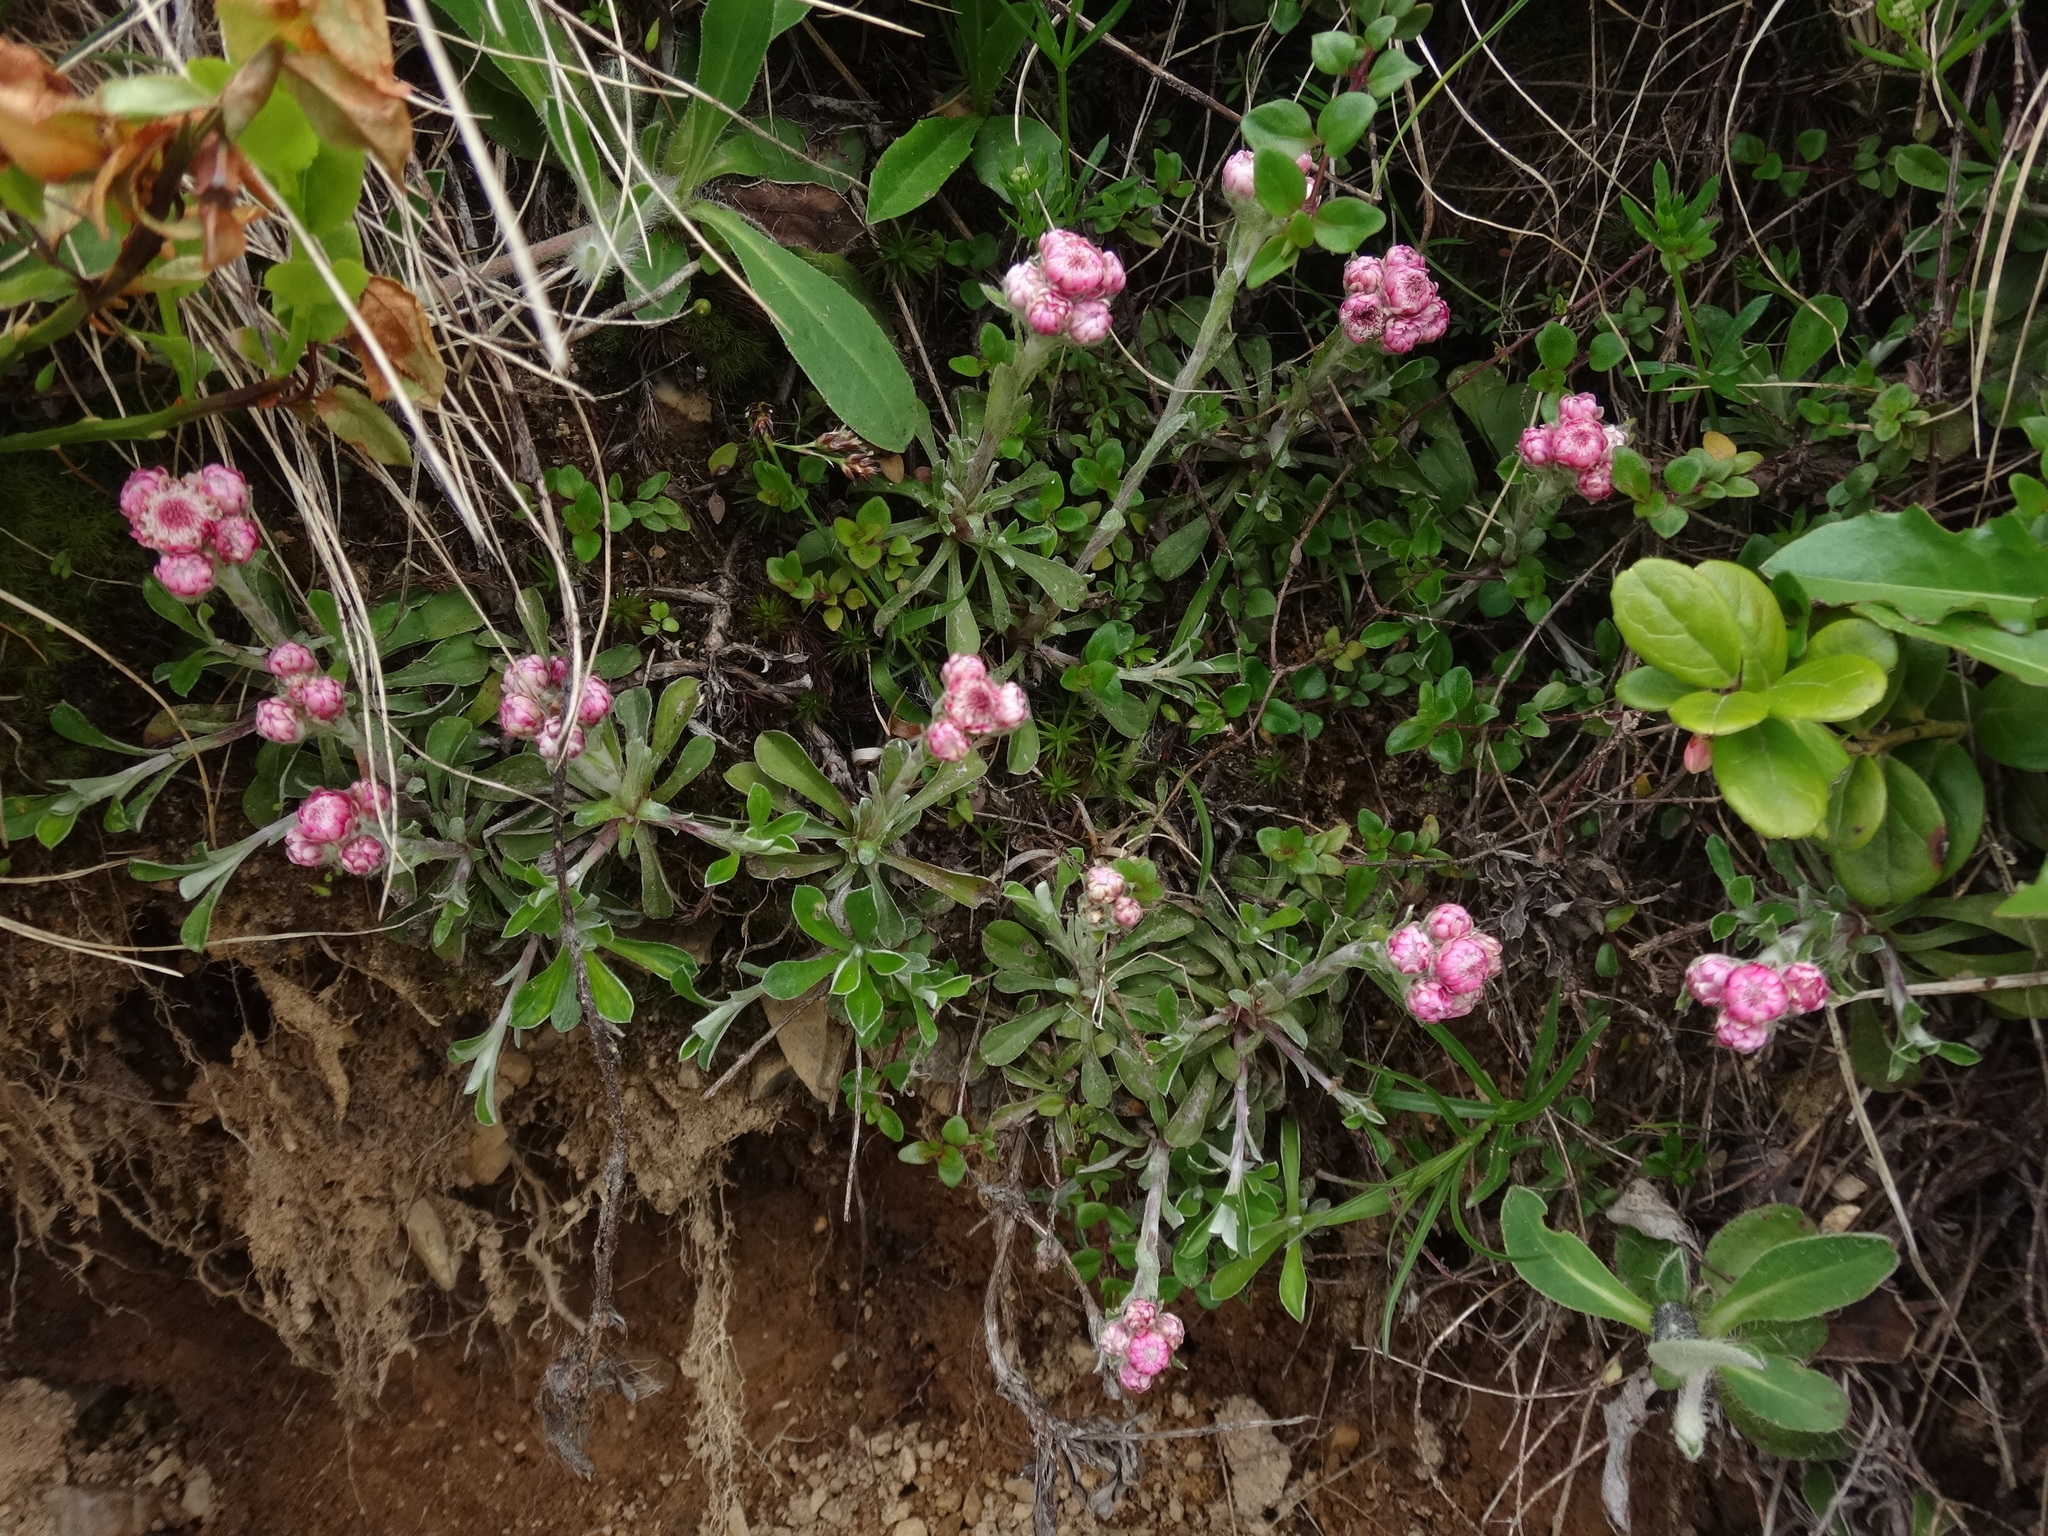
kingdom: Plantae
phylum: Tracheophyta
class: Magnoliopsida
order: Asterales
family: Asteraceae
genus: Antennaria
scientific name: Antennaria dioica
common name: Mountain everlasting
